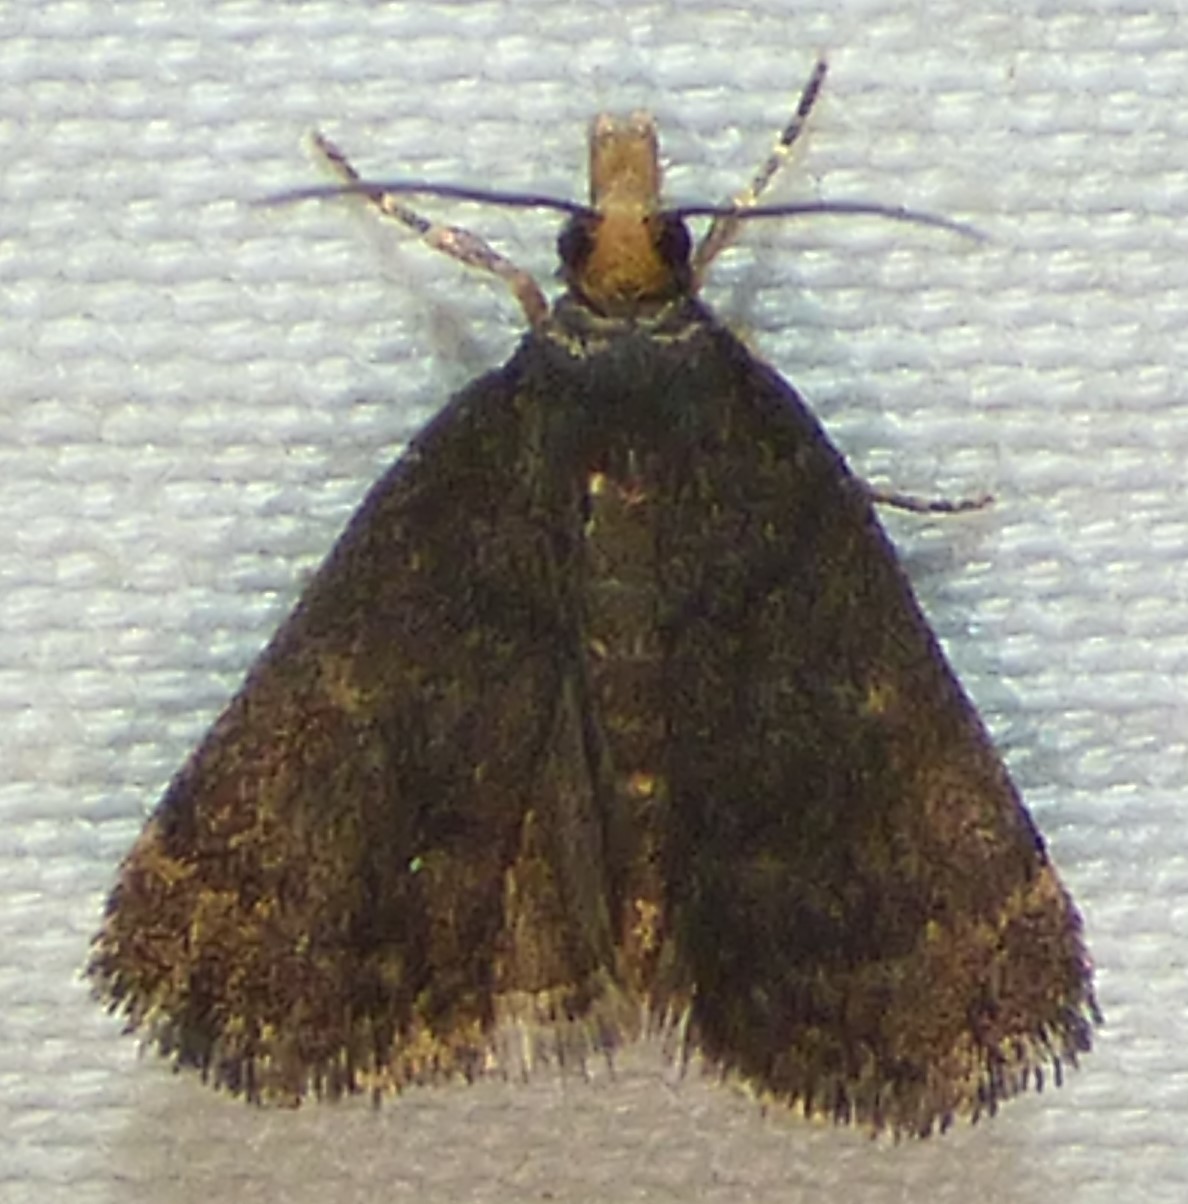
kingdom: Animalia
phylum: Arthropoda
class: Insecta
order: Lepidoptera
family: Crambidae
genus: Pyrausta
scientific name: Pyrausta merrickalis
